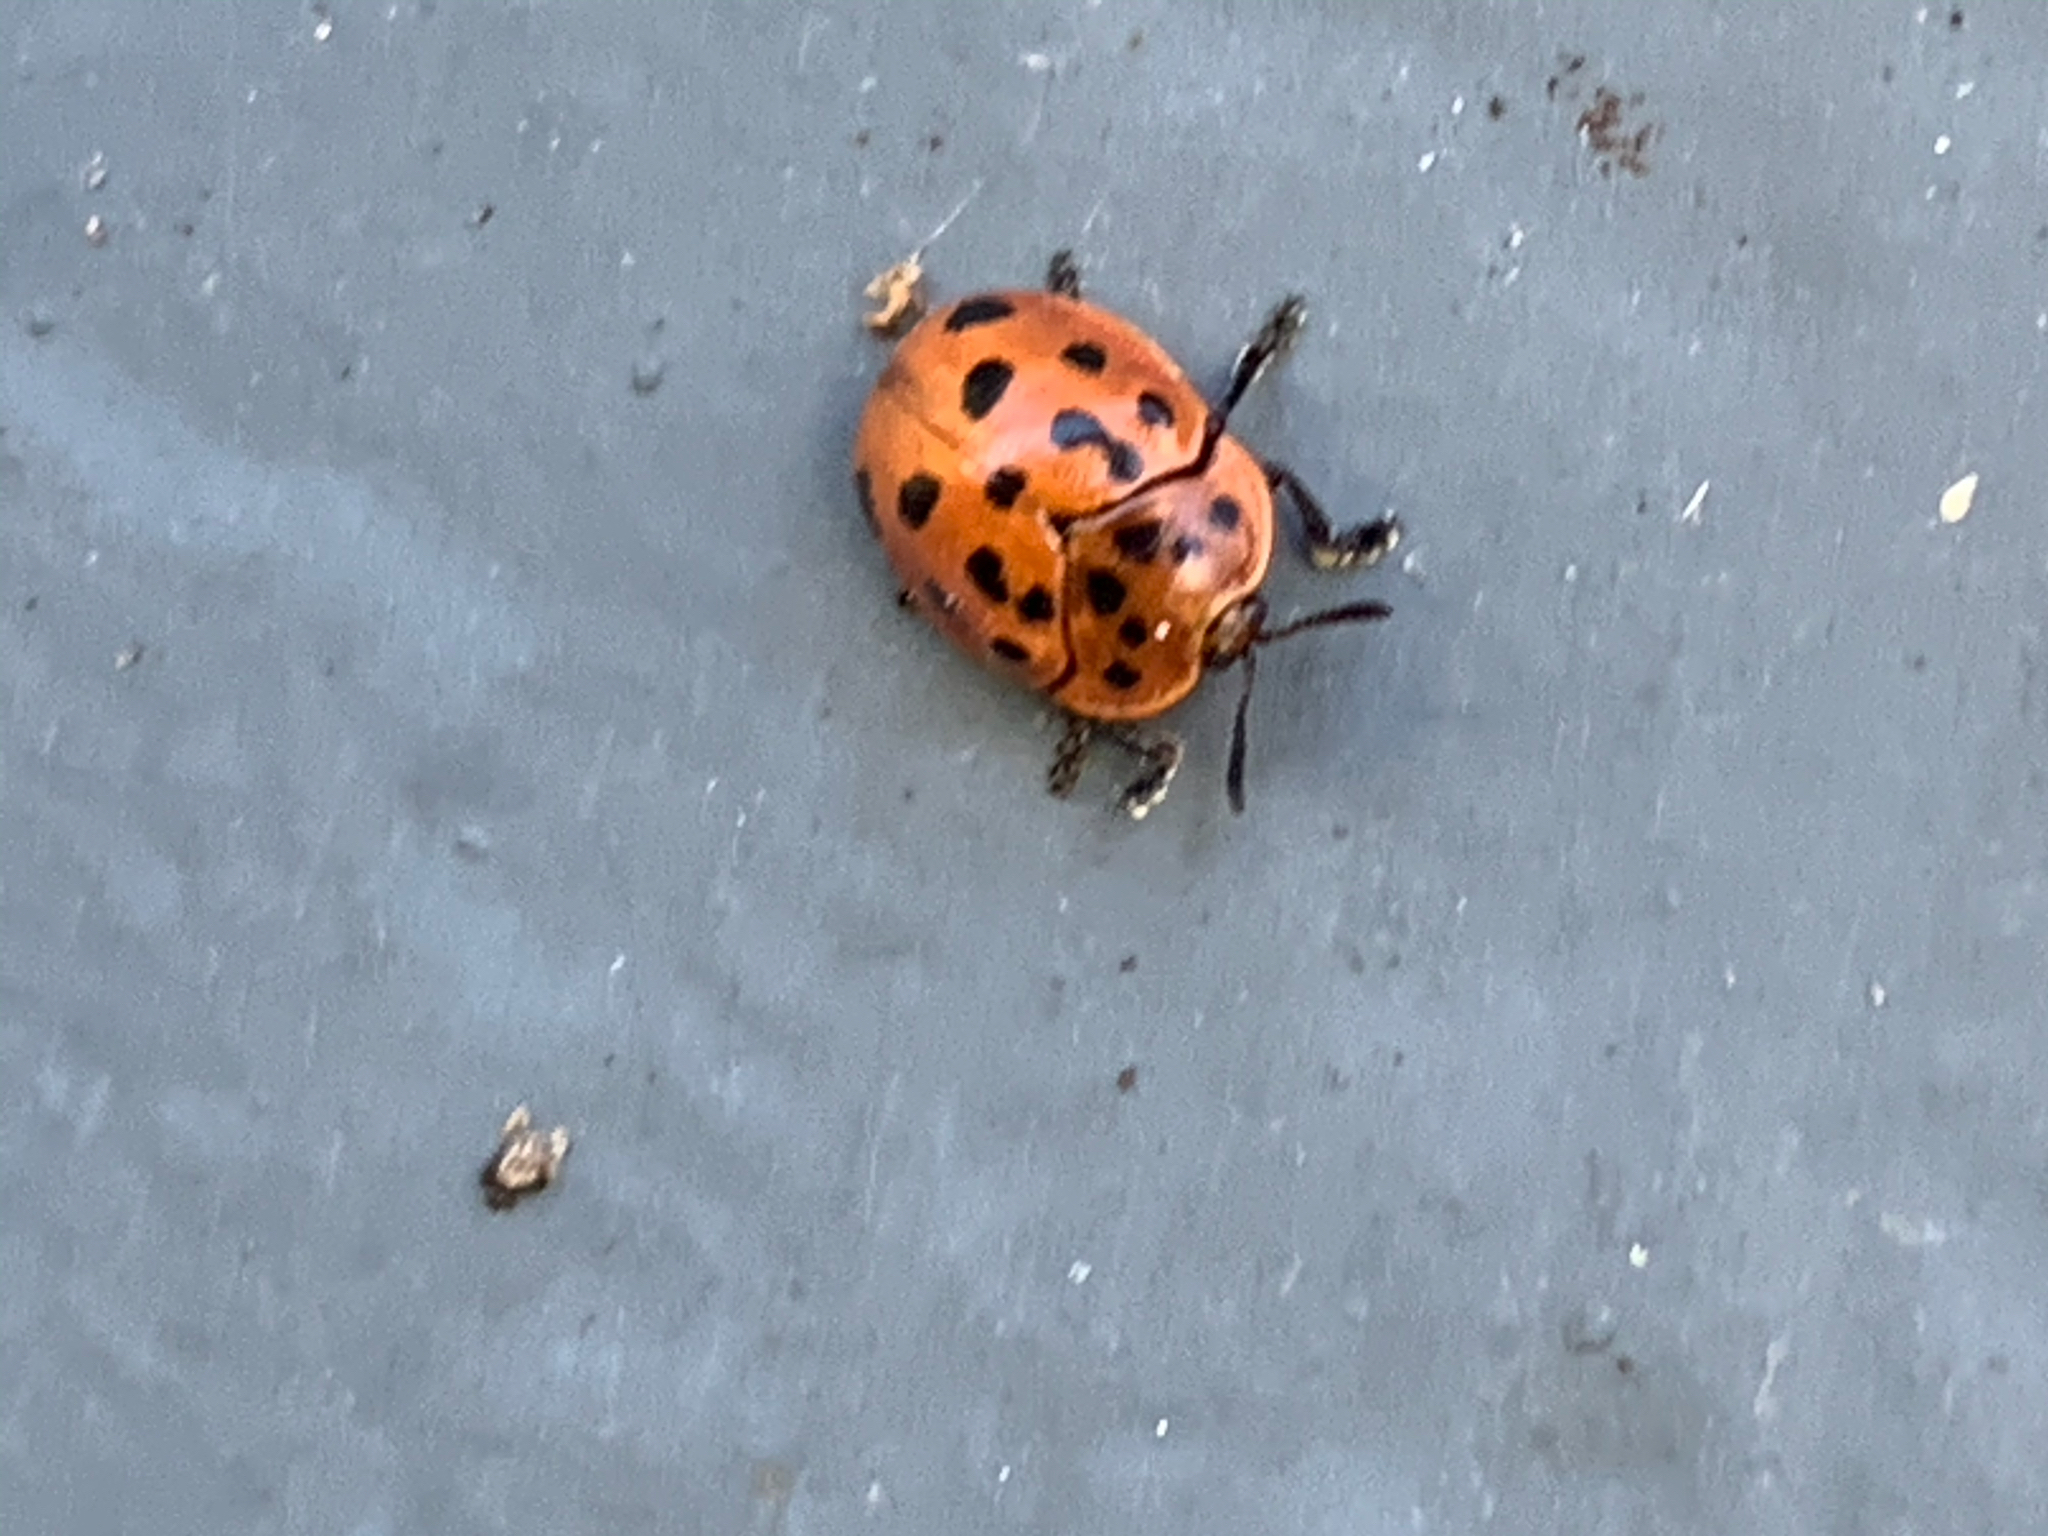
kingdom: Animalia
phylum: Arthropoda
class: Insecta
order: Coleoptera
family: Chrysomelidae
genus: Chelymorpha
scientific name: Chelymorpha cassidea
